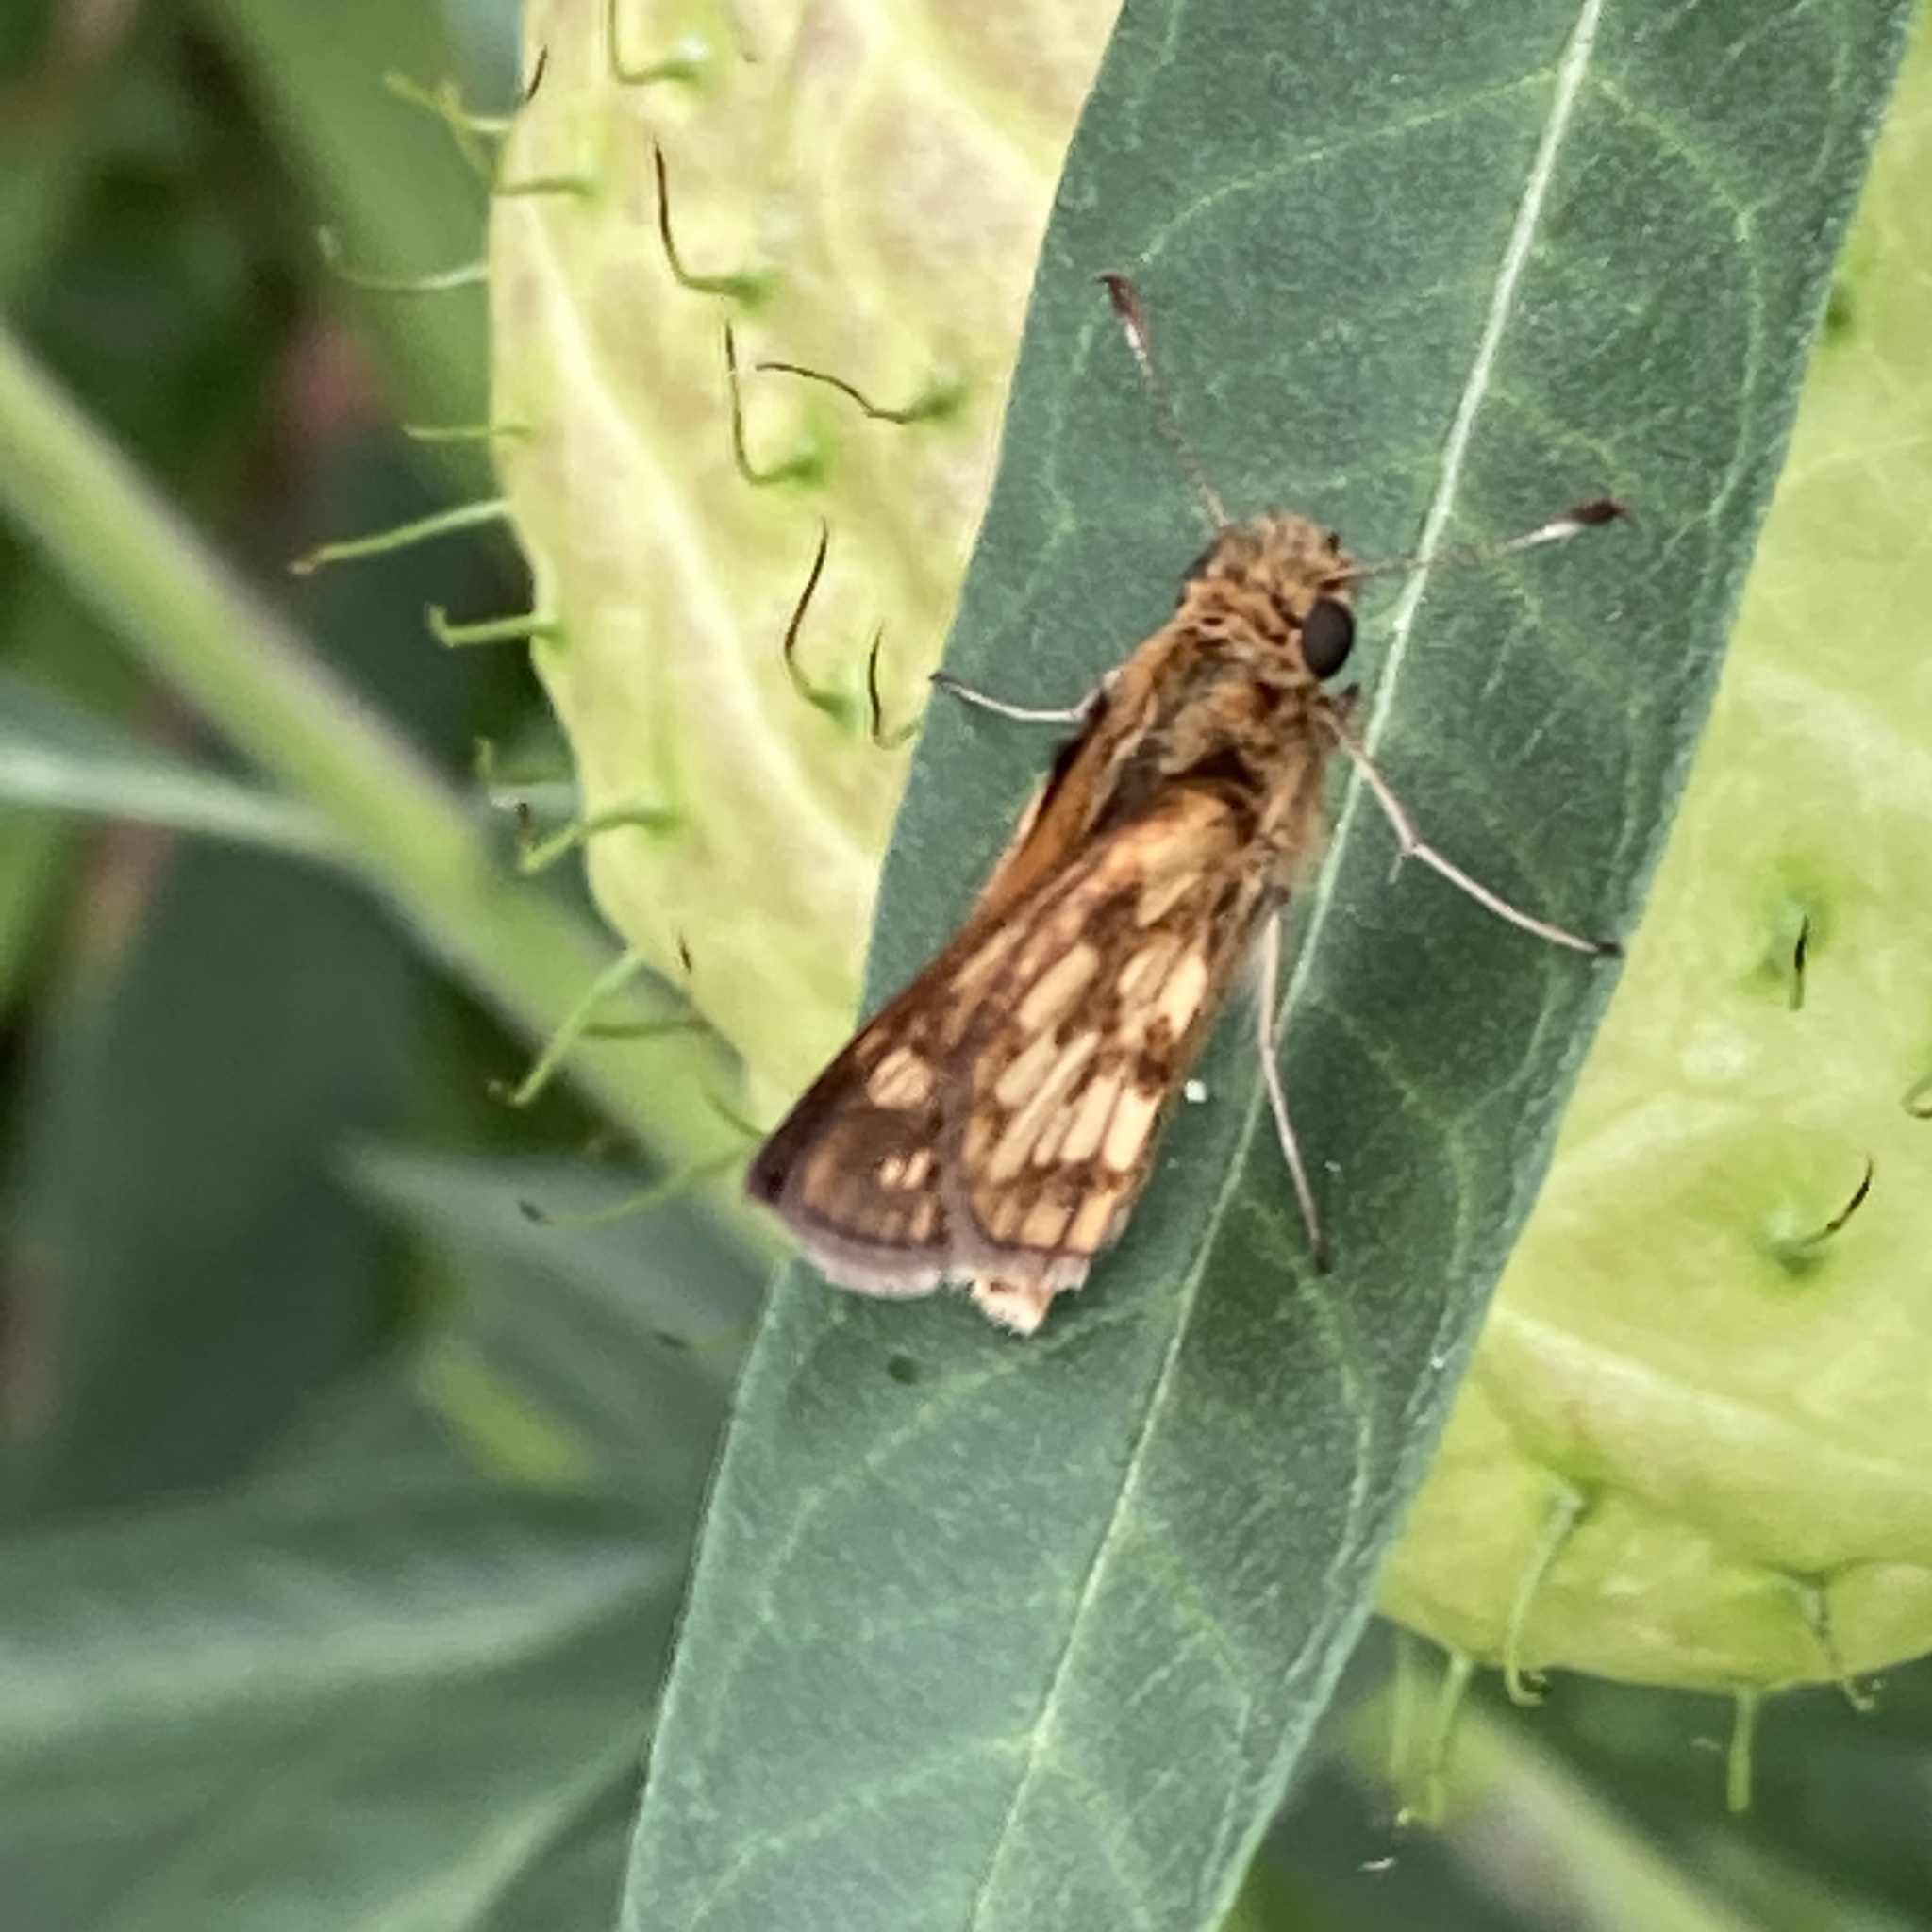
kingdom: Animalia
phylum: Arthropoda
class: Insecta
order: Lepidoptera
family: Hesperiidae
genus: Polites
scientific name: Polites coras
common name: Peck's skipper
